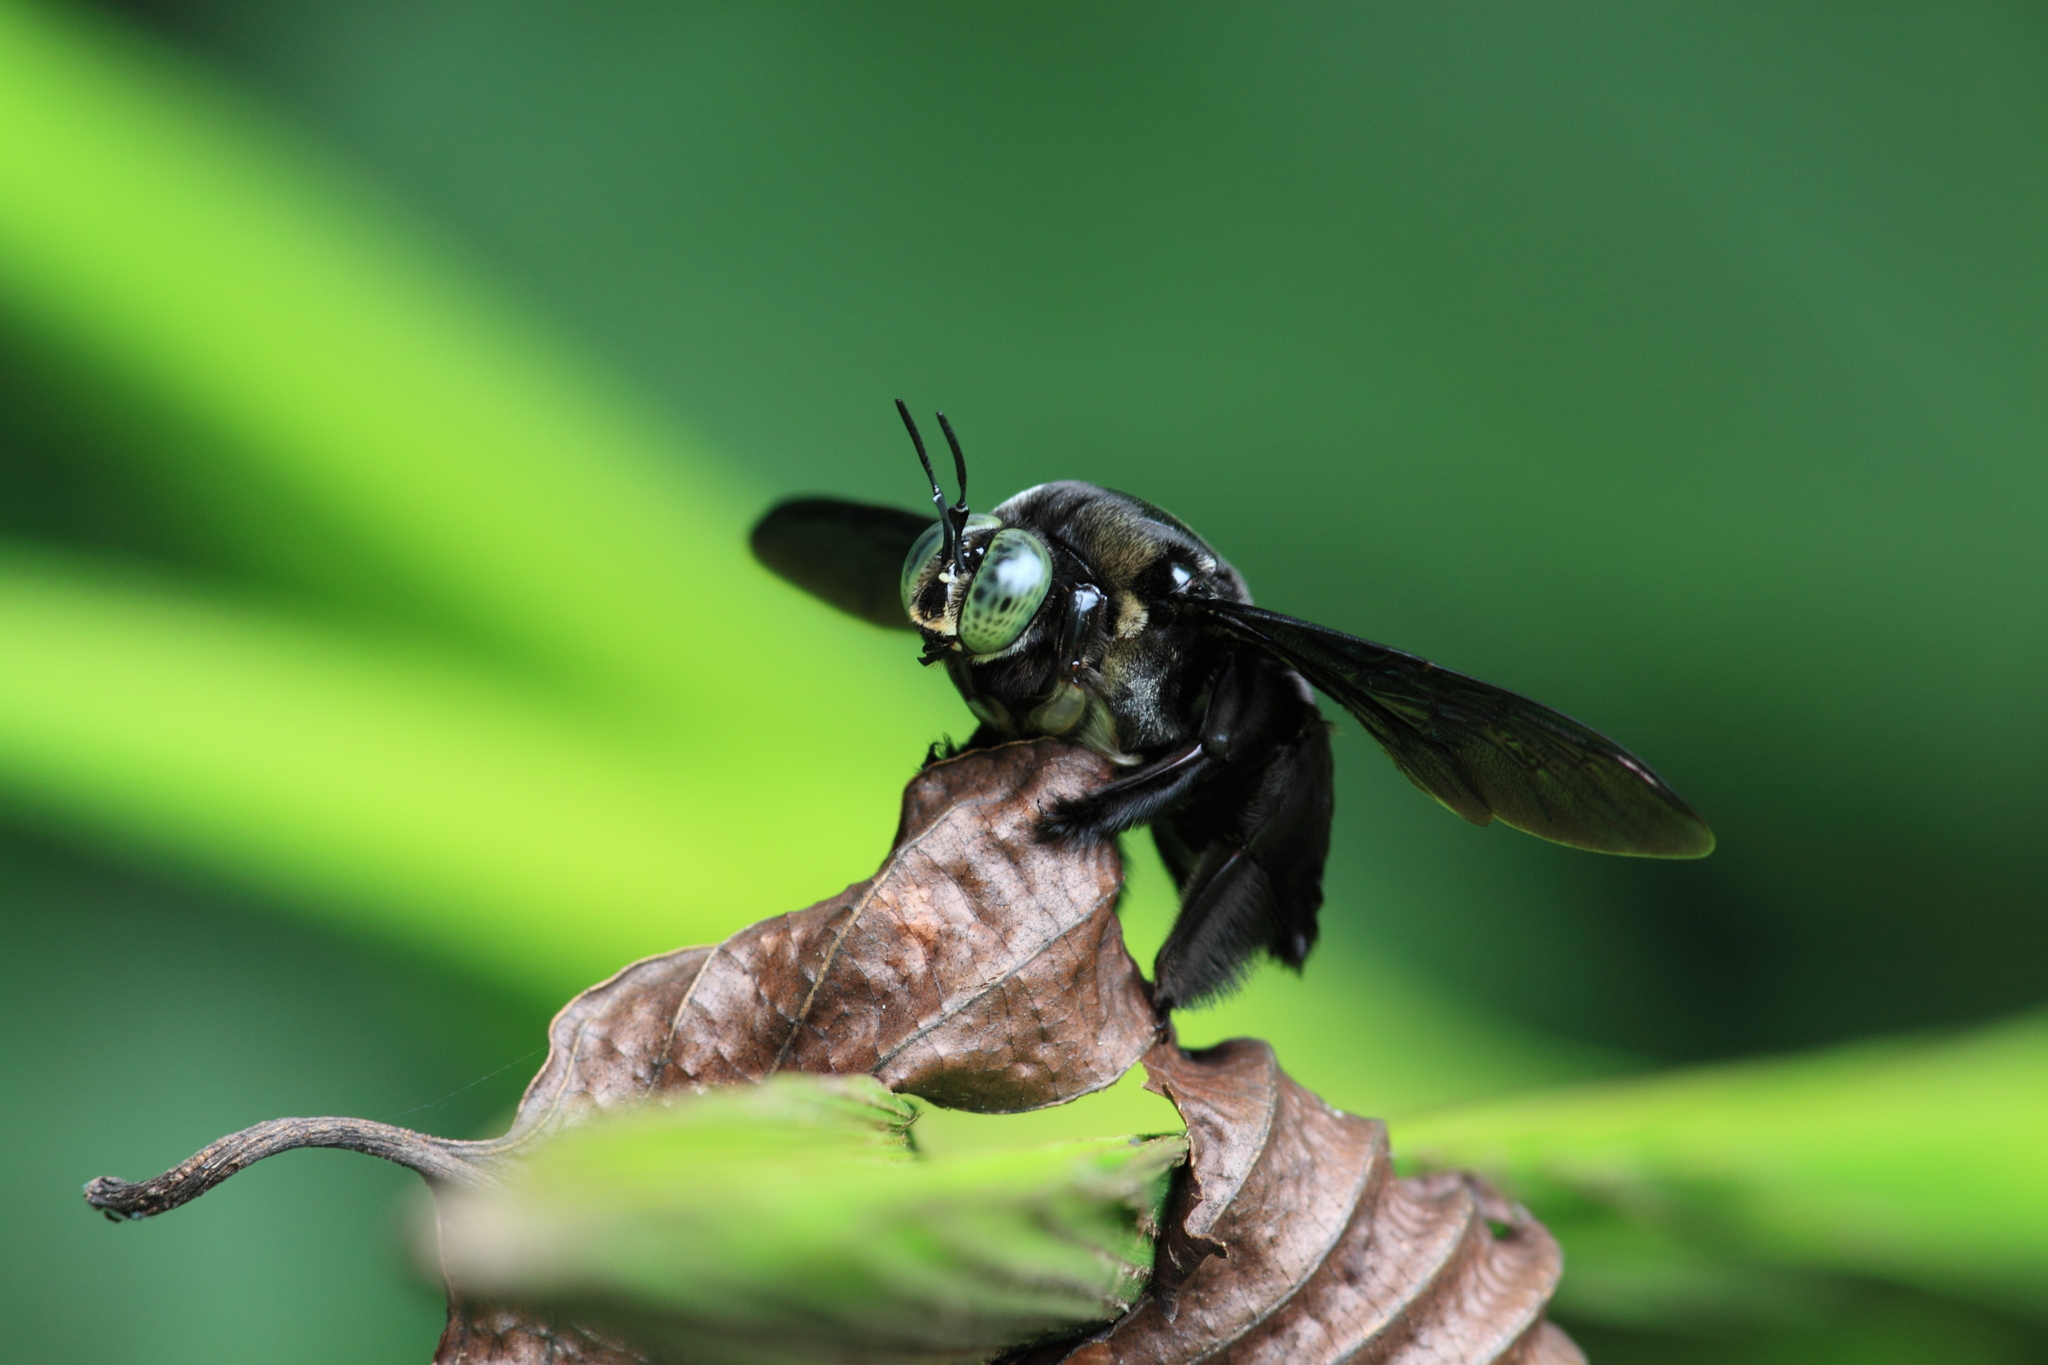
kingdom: Animalia
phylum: Arthropoda
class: Insecta
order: Hymenoptera
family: Apidae
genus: Xylocopa
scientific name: Xylocopa latipes
